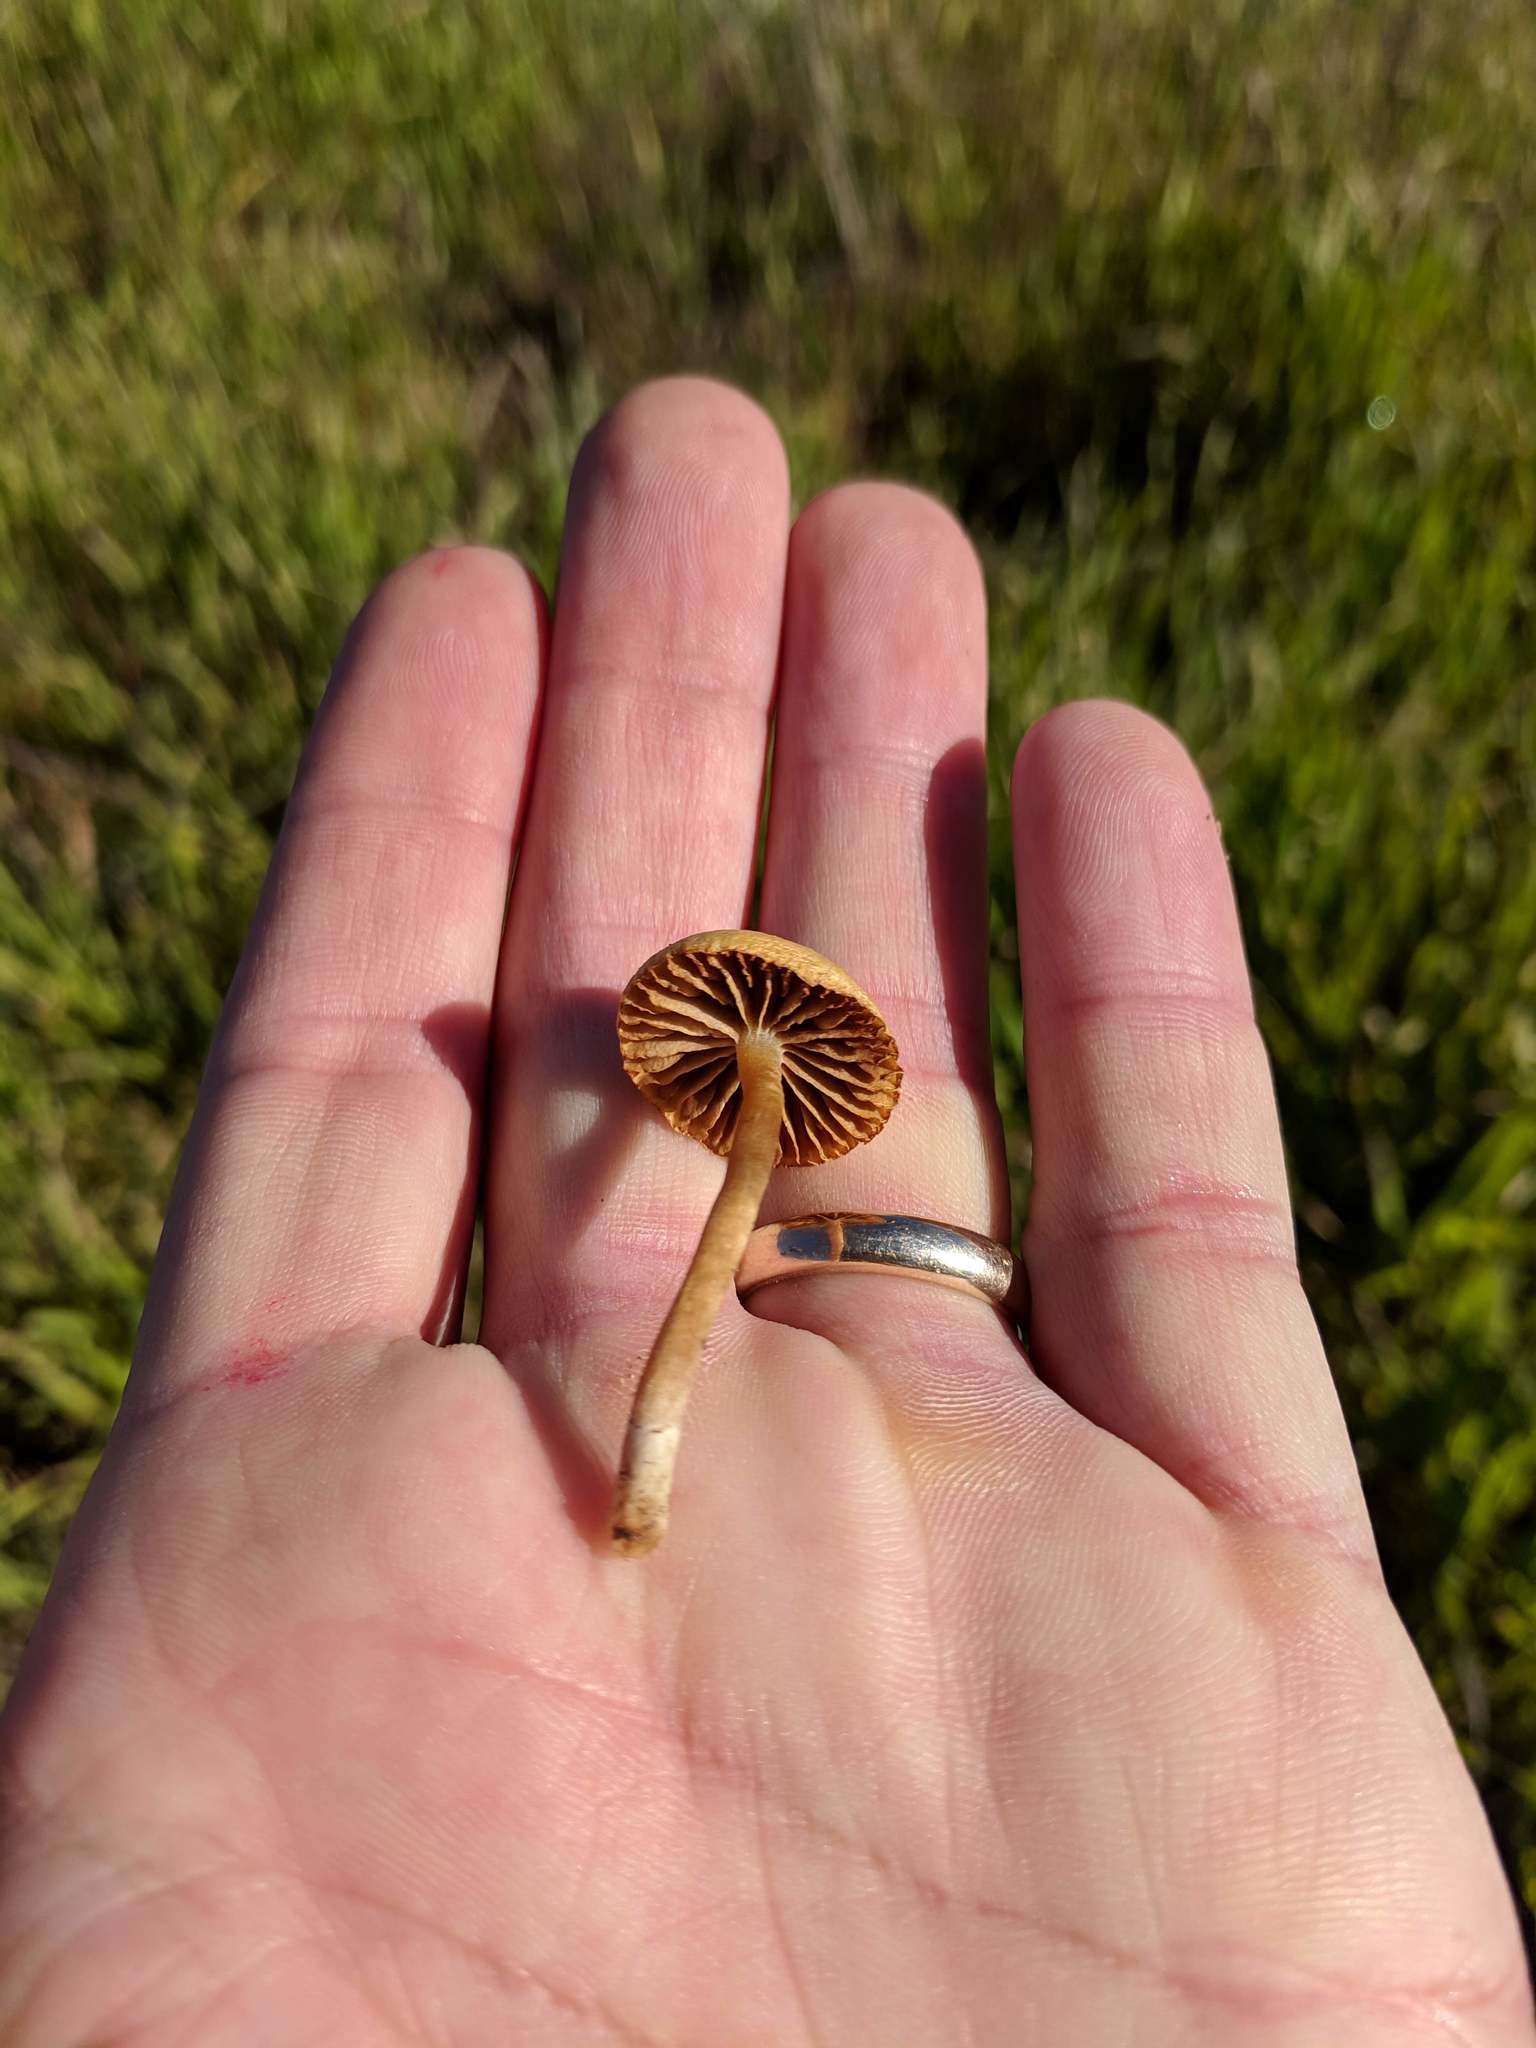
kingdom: Fungi
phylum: Basidiomycota
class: Agaricomycetes
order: Agaricales
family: Strophariaceae
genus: Agrocybe
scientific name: Agrocybe pediades
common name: Common fieldcap
